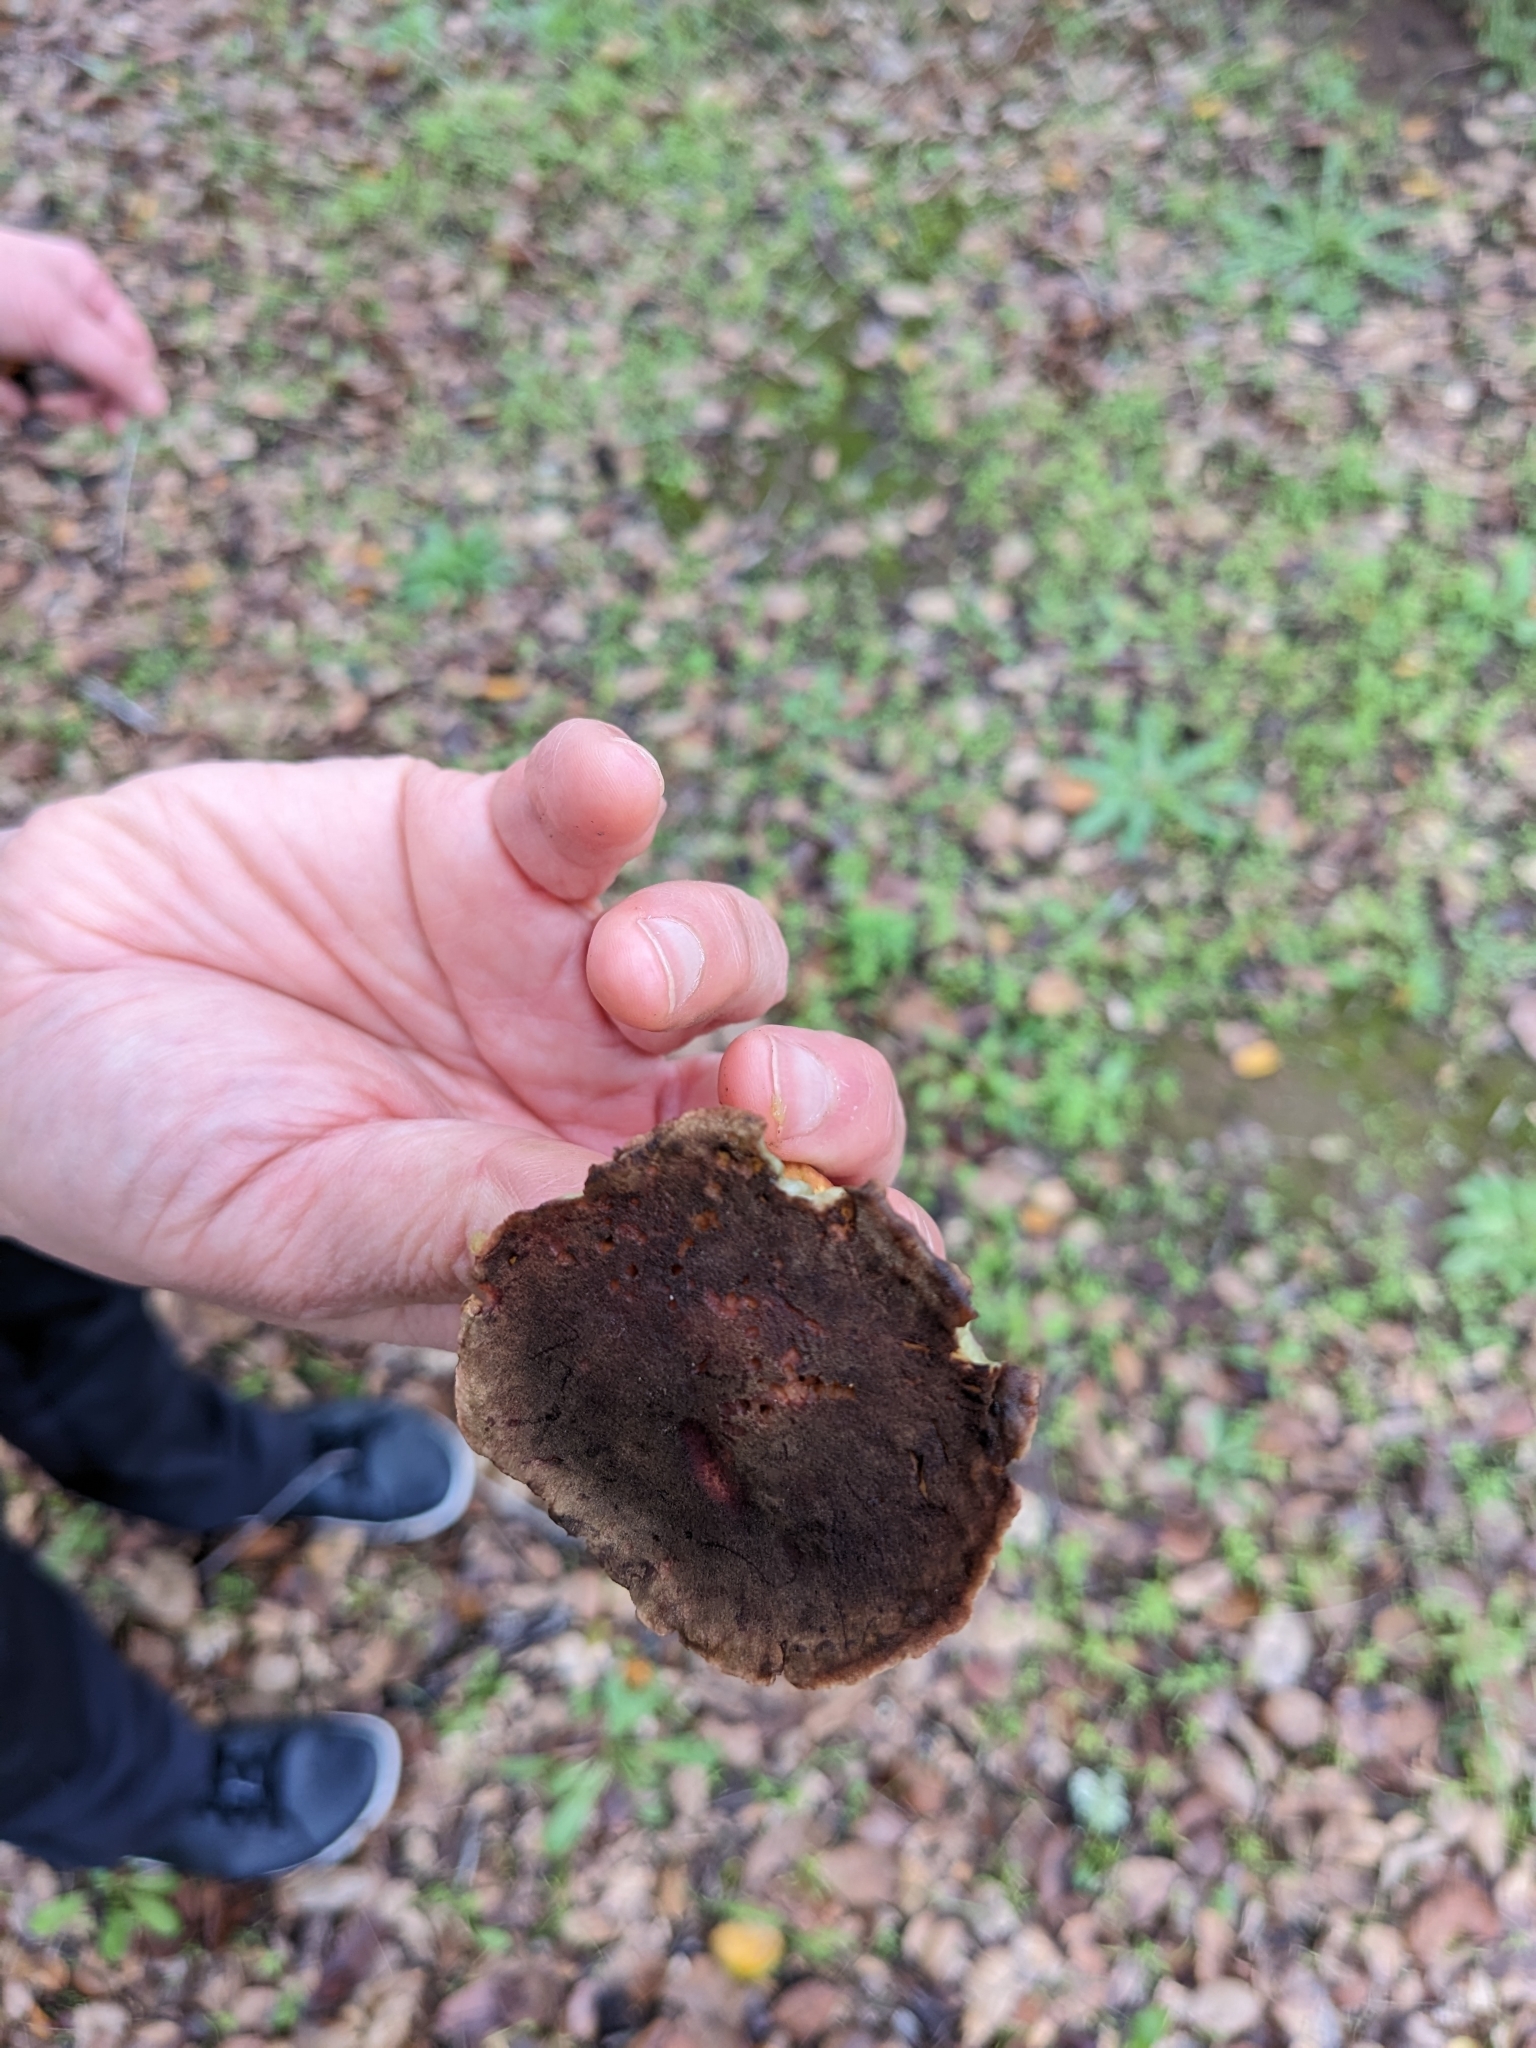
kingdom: Fungi
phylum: Basidiomycota
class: Agaricomycetes
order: Boletales
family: Boletaceae
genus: Xerocomellus
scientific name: Xerocomellus dryophilus
